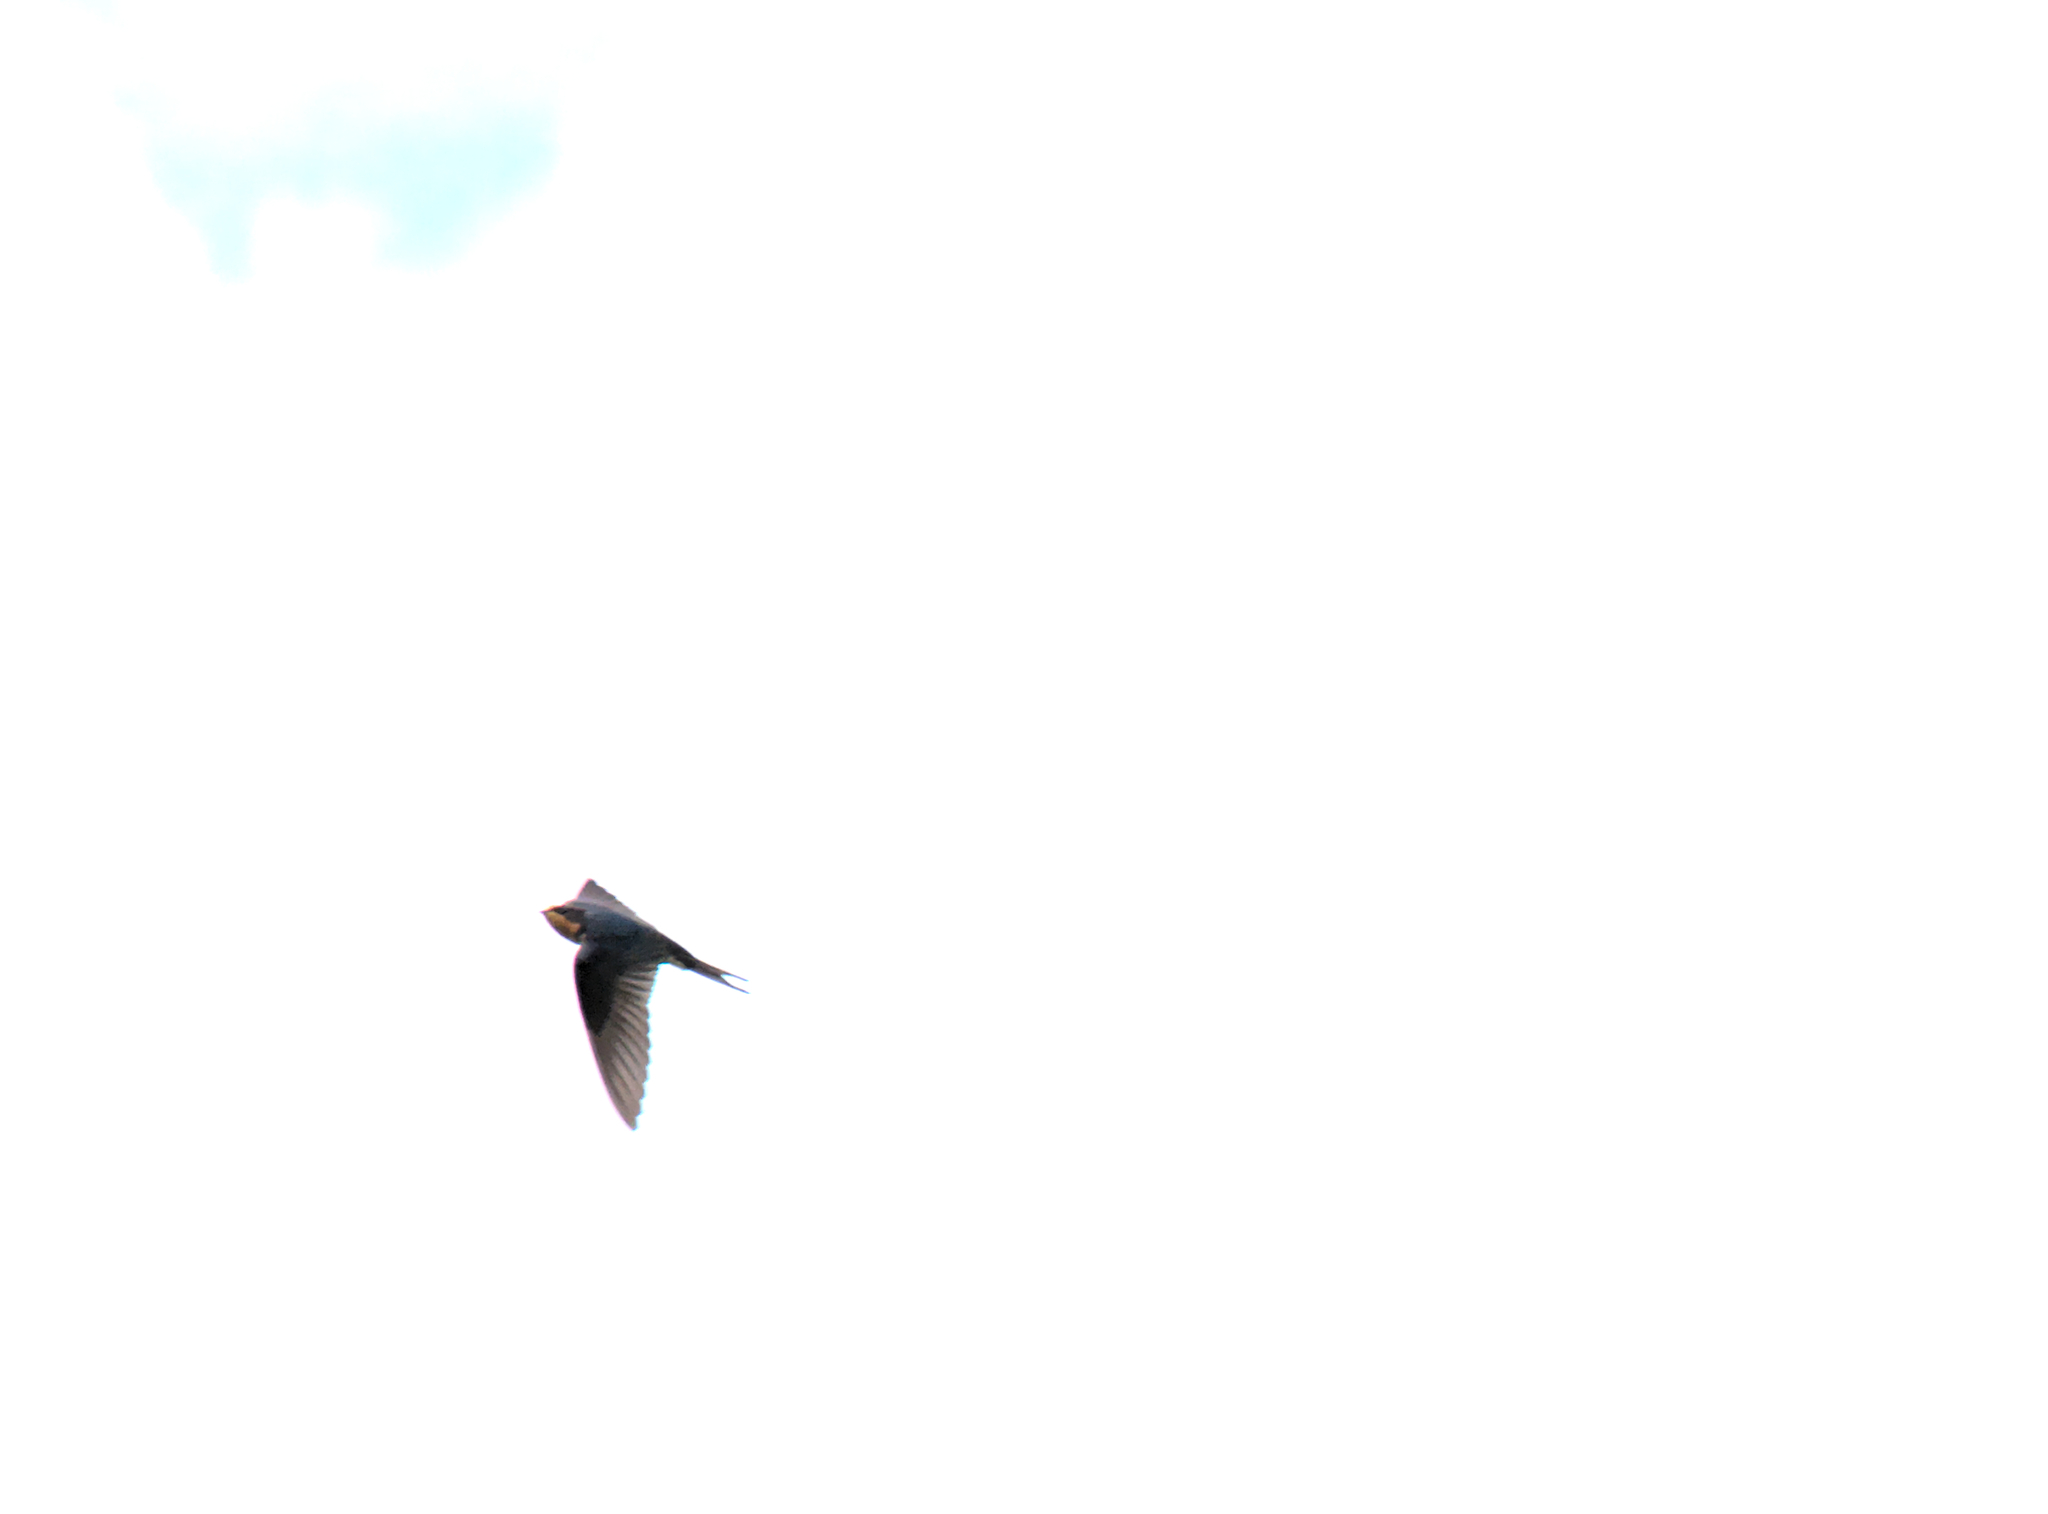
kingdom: Animalia
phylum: Chordata
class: Aves
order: Passeriformes
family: Hirundinidae
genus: Hirundo
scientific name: Hirundo rustica
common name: Barn swallow
